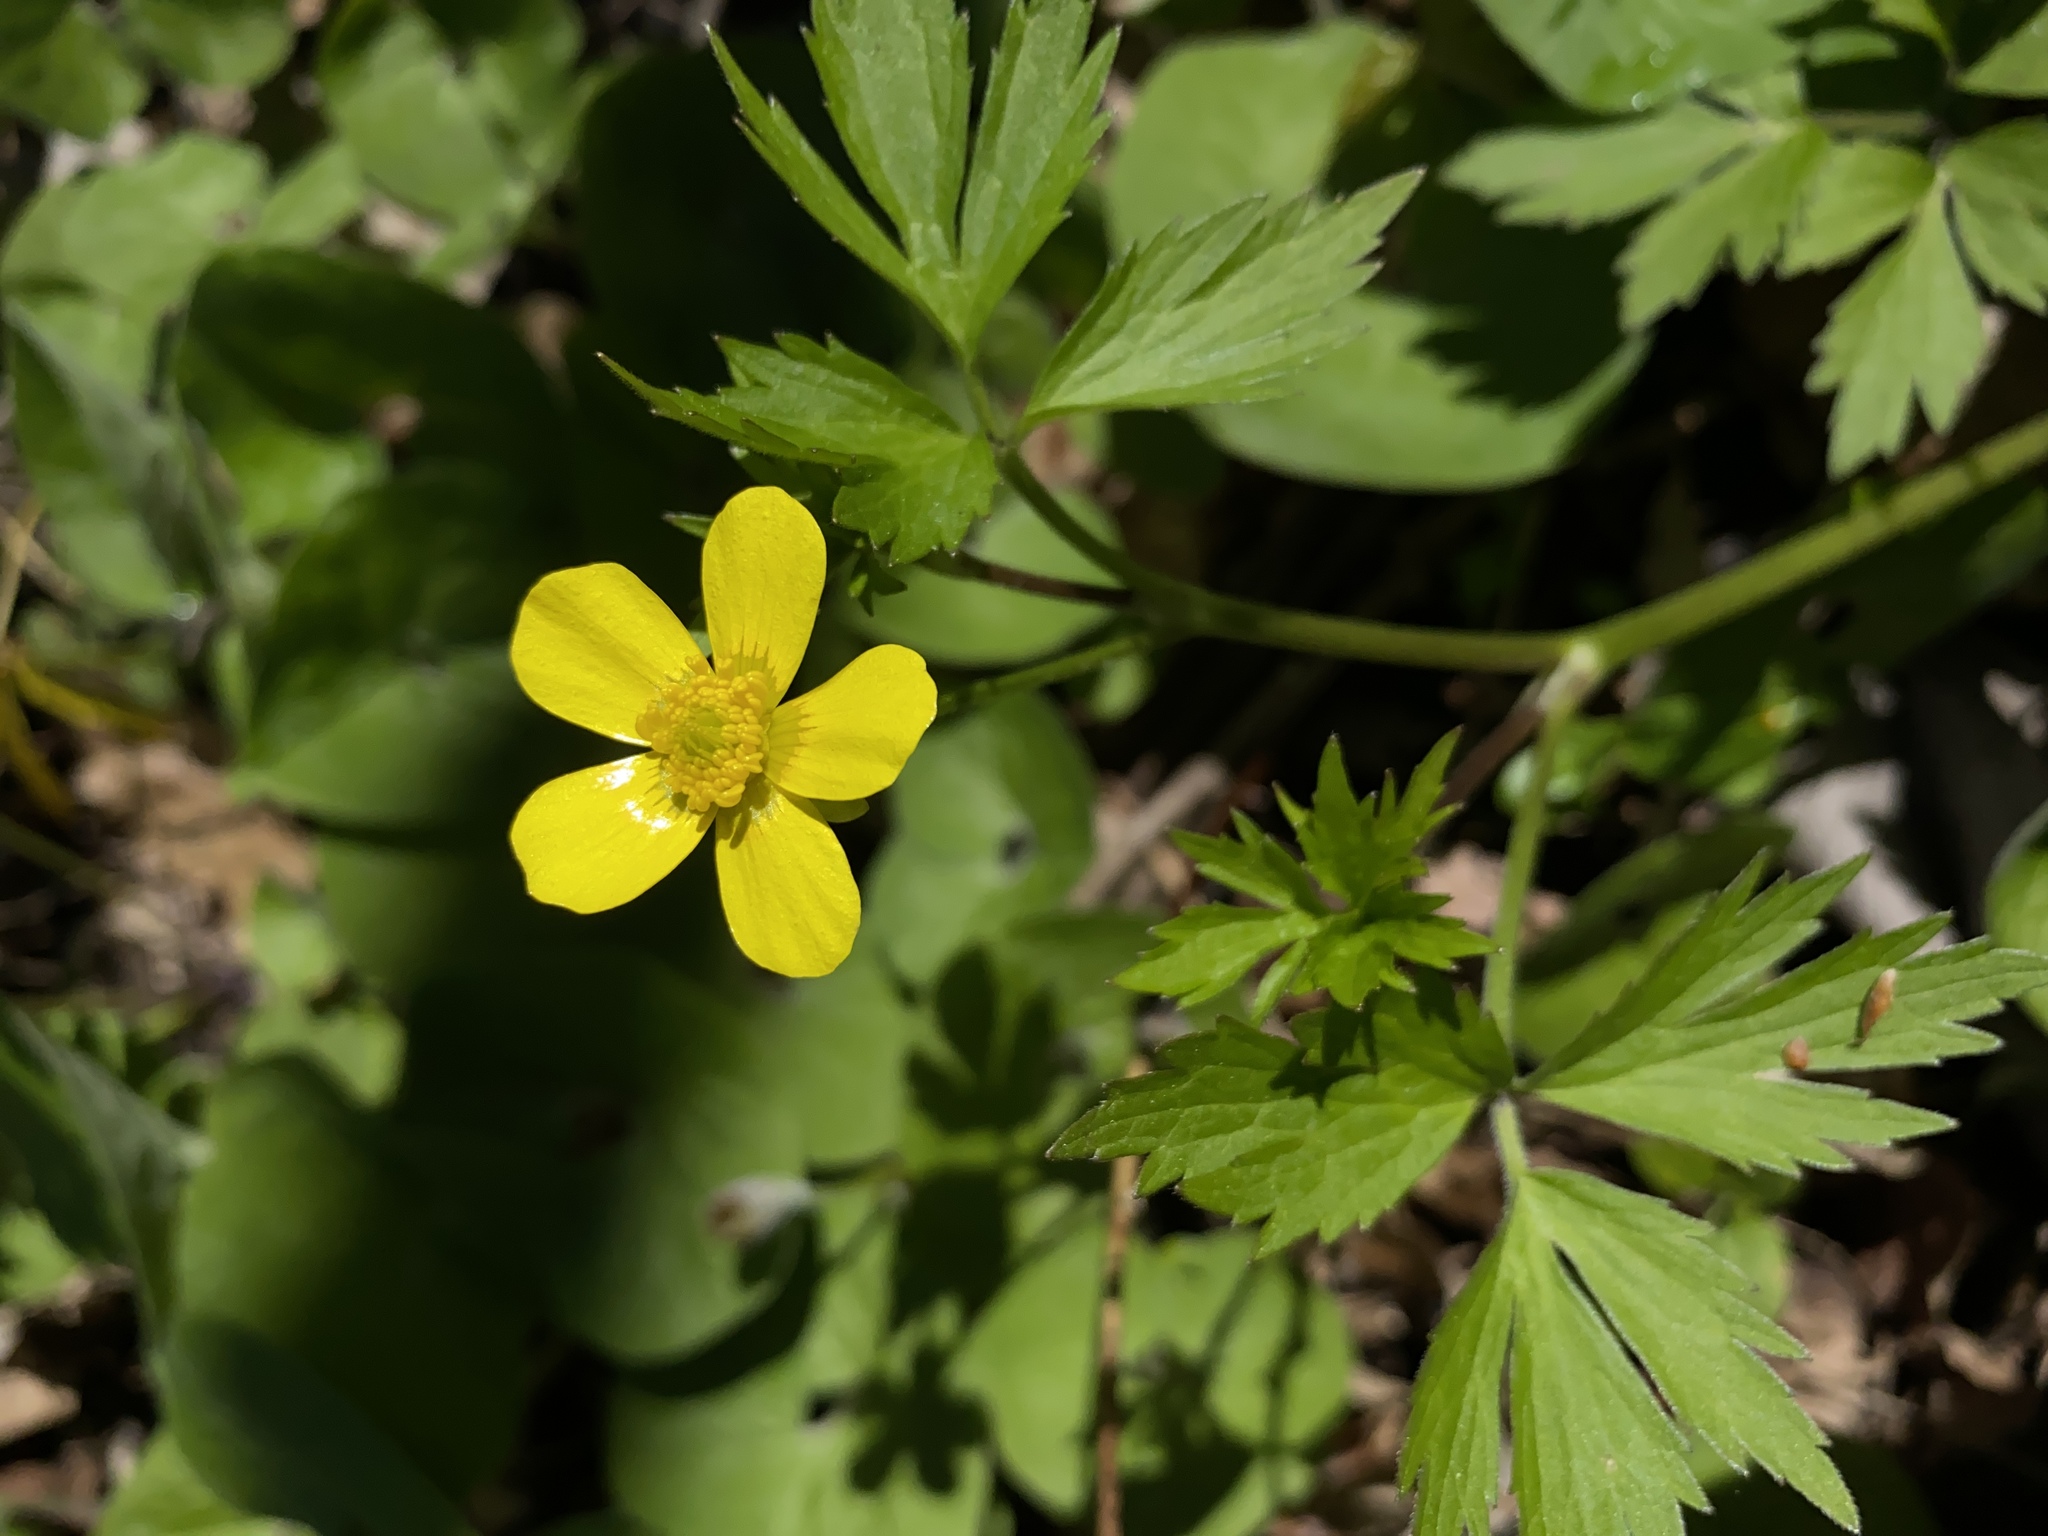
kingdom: Plantae
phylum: Tracheophyta
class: Magnoliopsida
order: Ranunculales
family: Ranunculaceae
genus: Ranunculus
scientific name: Ranunculus hispidus
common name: Bristly buttercup
